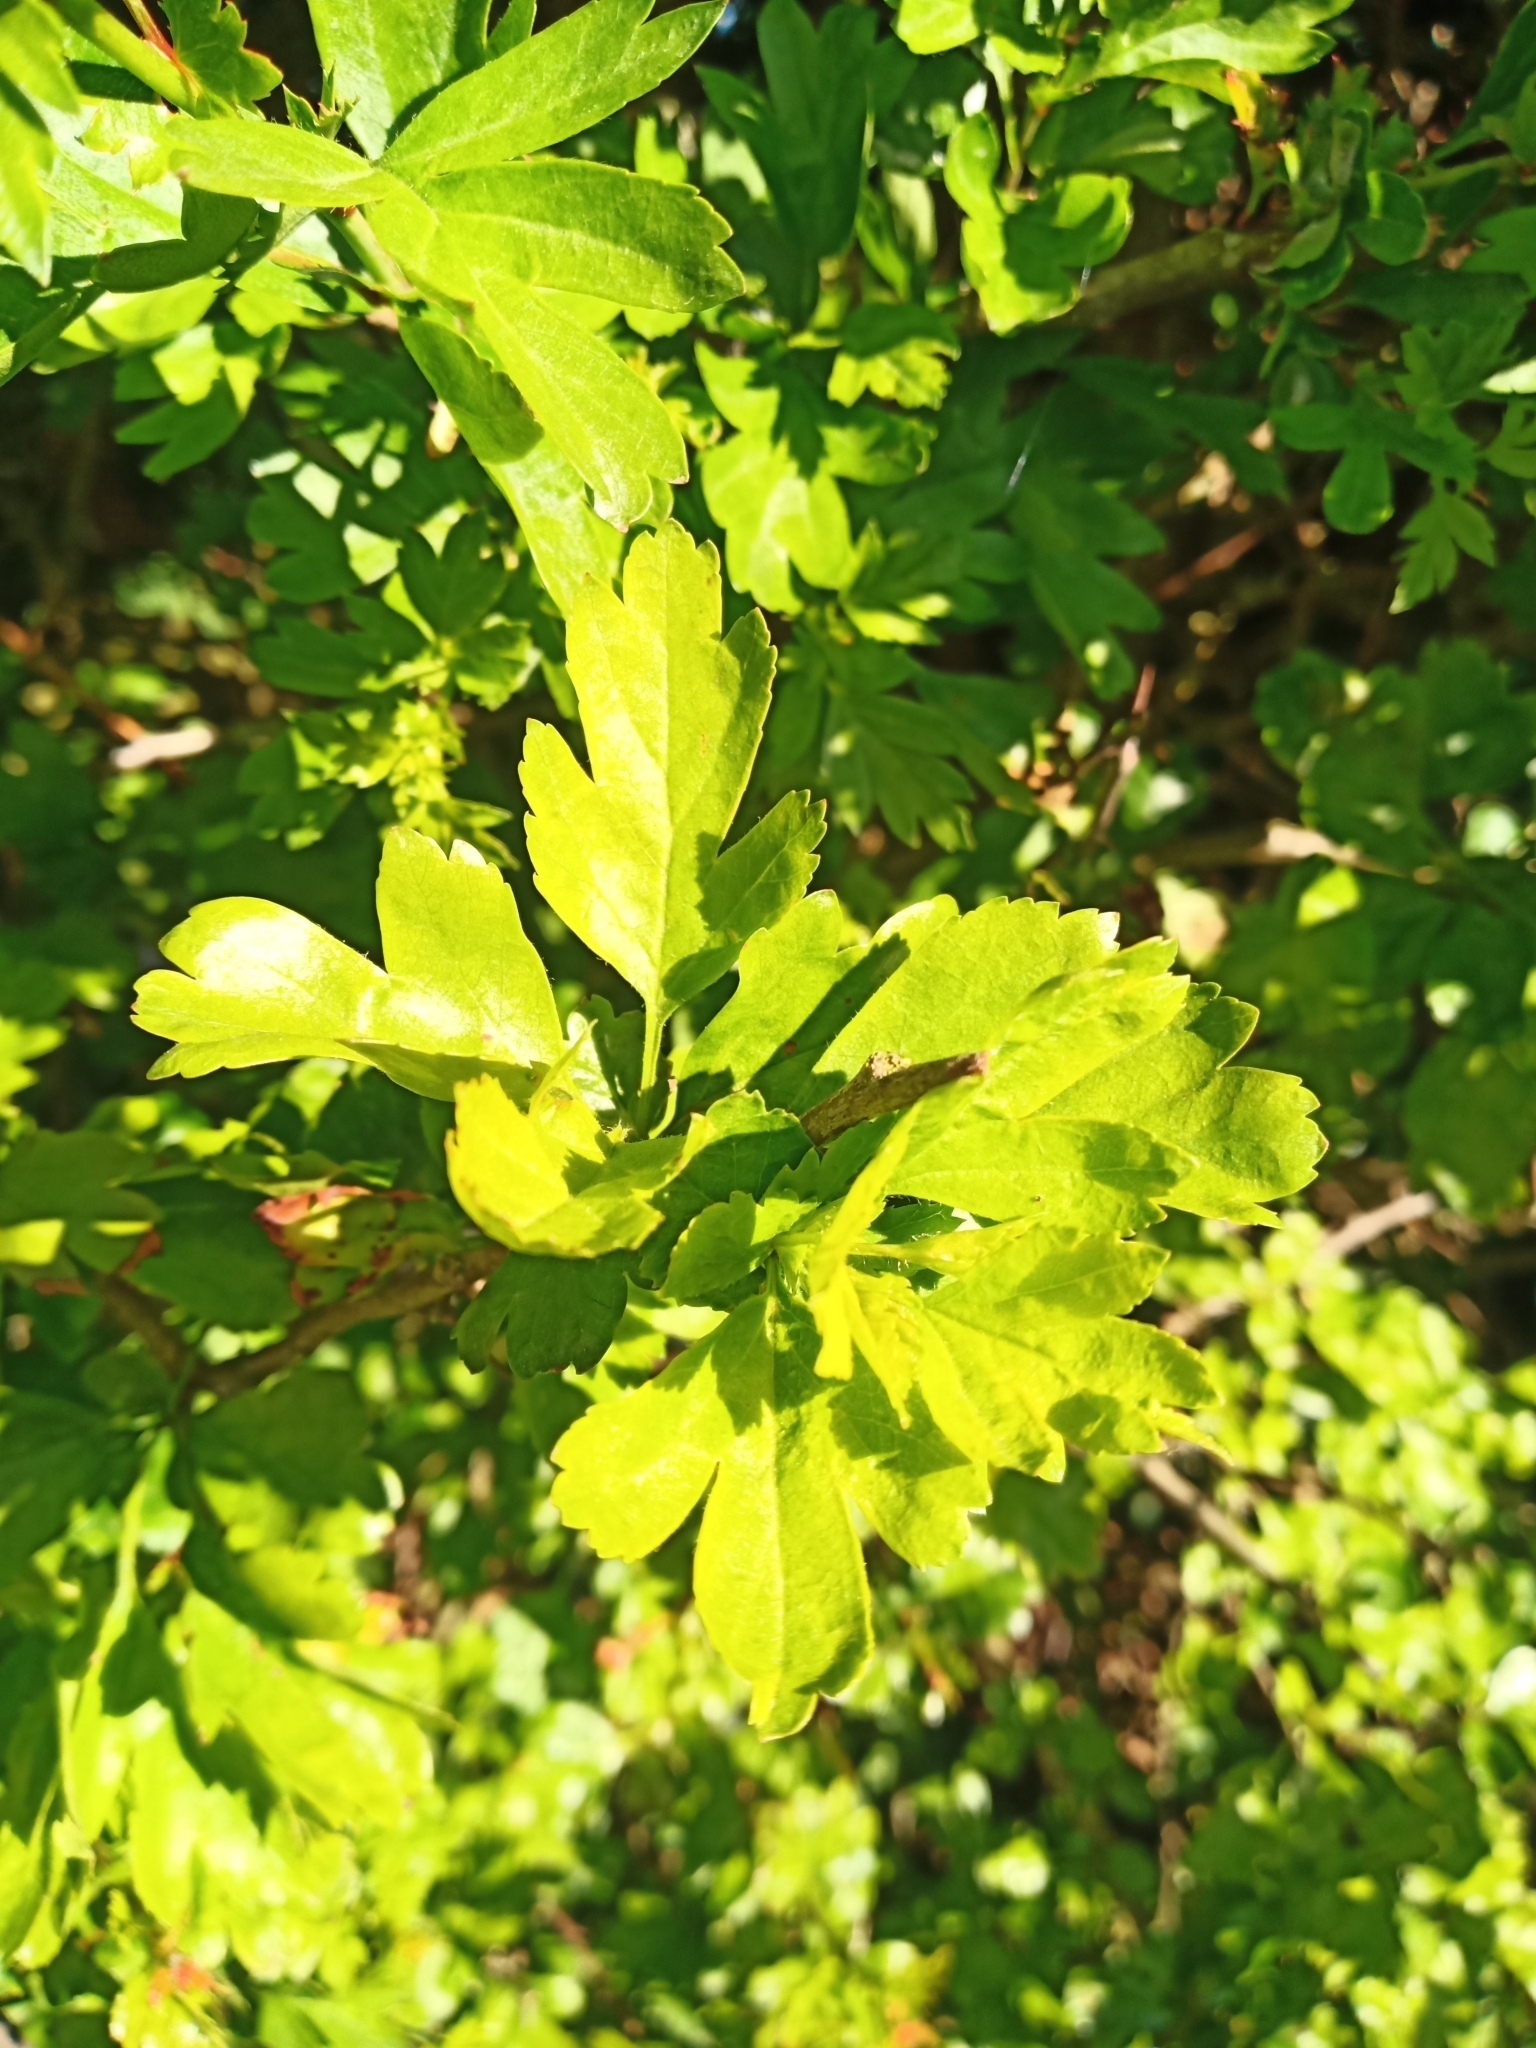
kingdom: Plantae
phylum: Tracheophyta
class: Magnoliopsida
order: Rosales
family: Rosaceae
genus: Crataegus
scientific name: Crataegus monogyna
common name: Hawthorn
